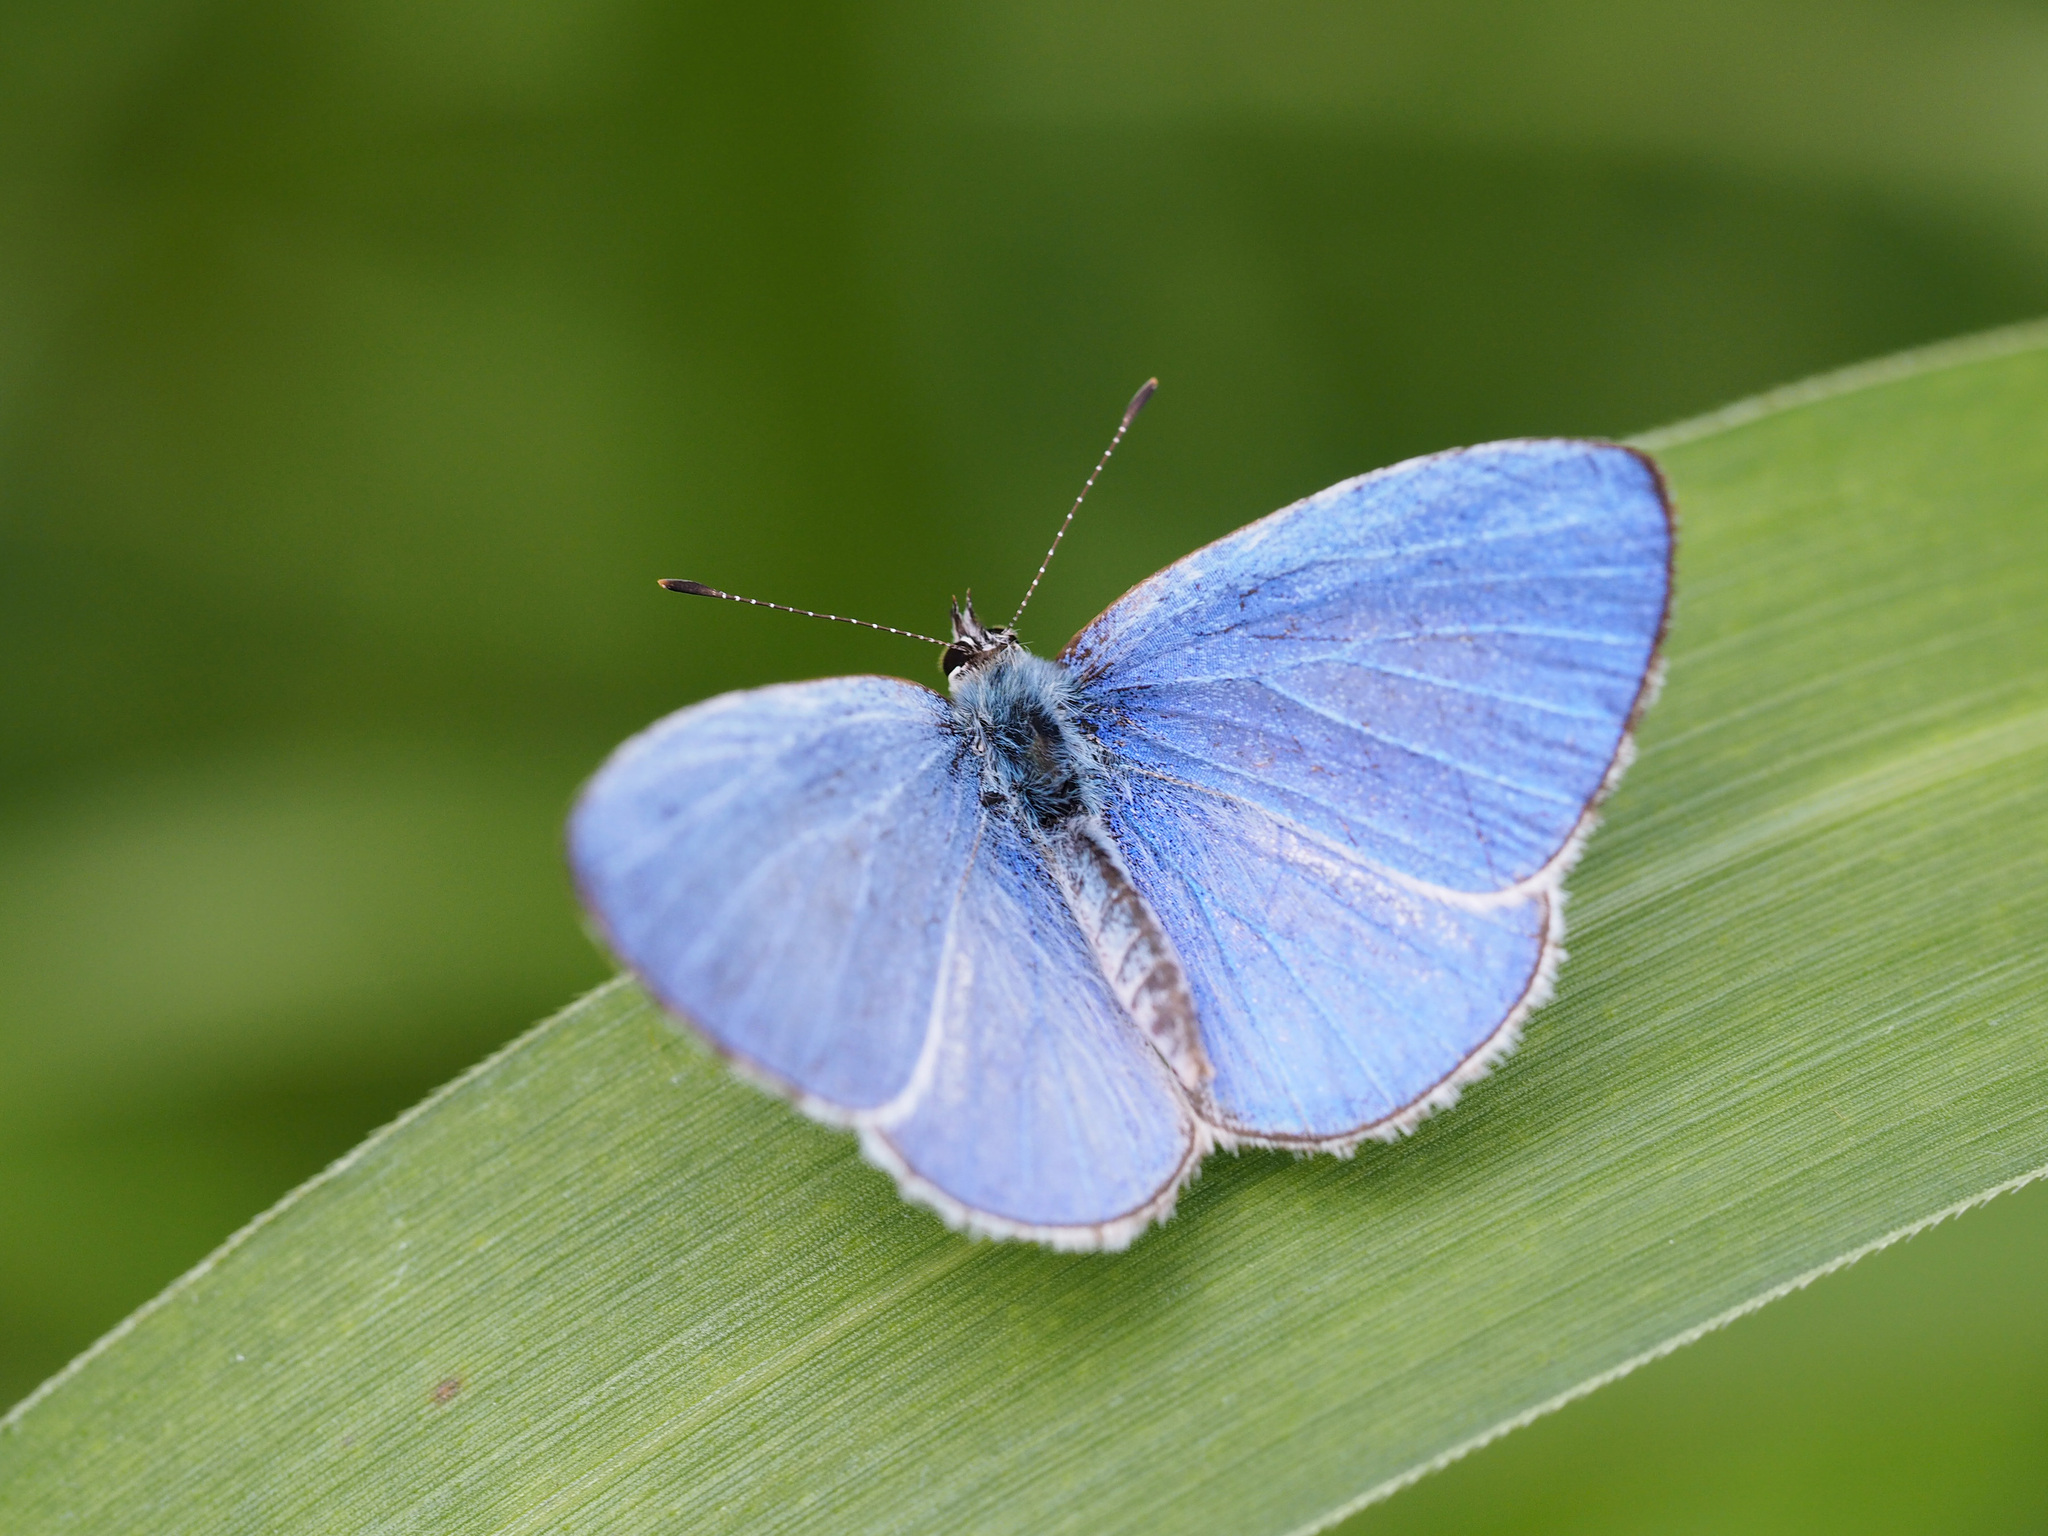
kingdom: Animalia
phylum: Arthropoda
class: Insecta
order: Lepidoptera
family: Lycaenidae
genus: Udara
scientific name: Udara dilectus
